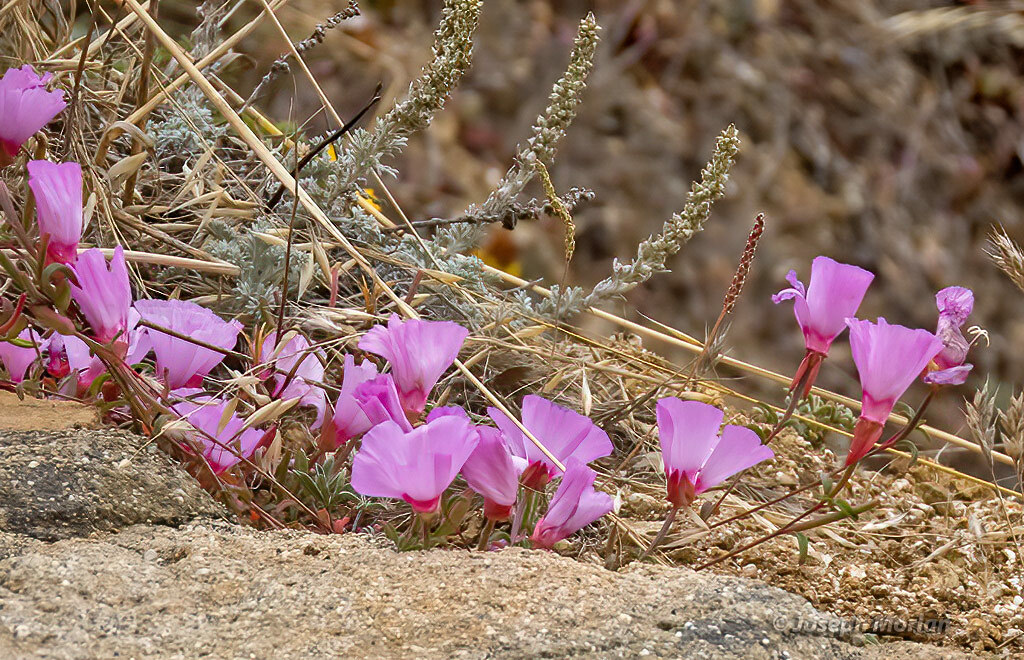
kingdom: Plantae
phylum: Tracheophyta
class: Magnoliopsida
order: Myrtales
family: Onagraceae
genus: Clarkia
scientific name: Clarkia rubicunda
